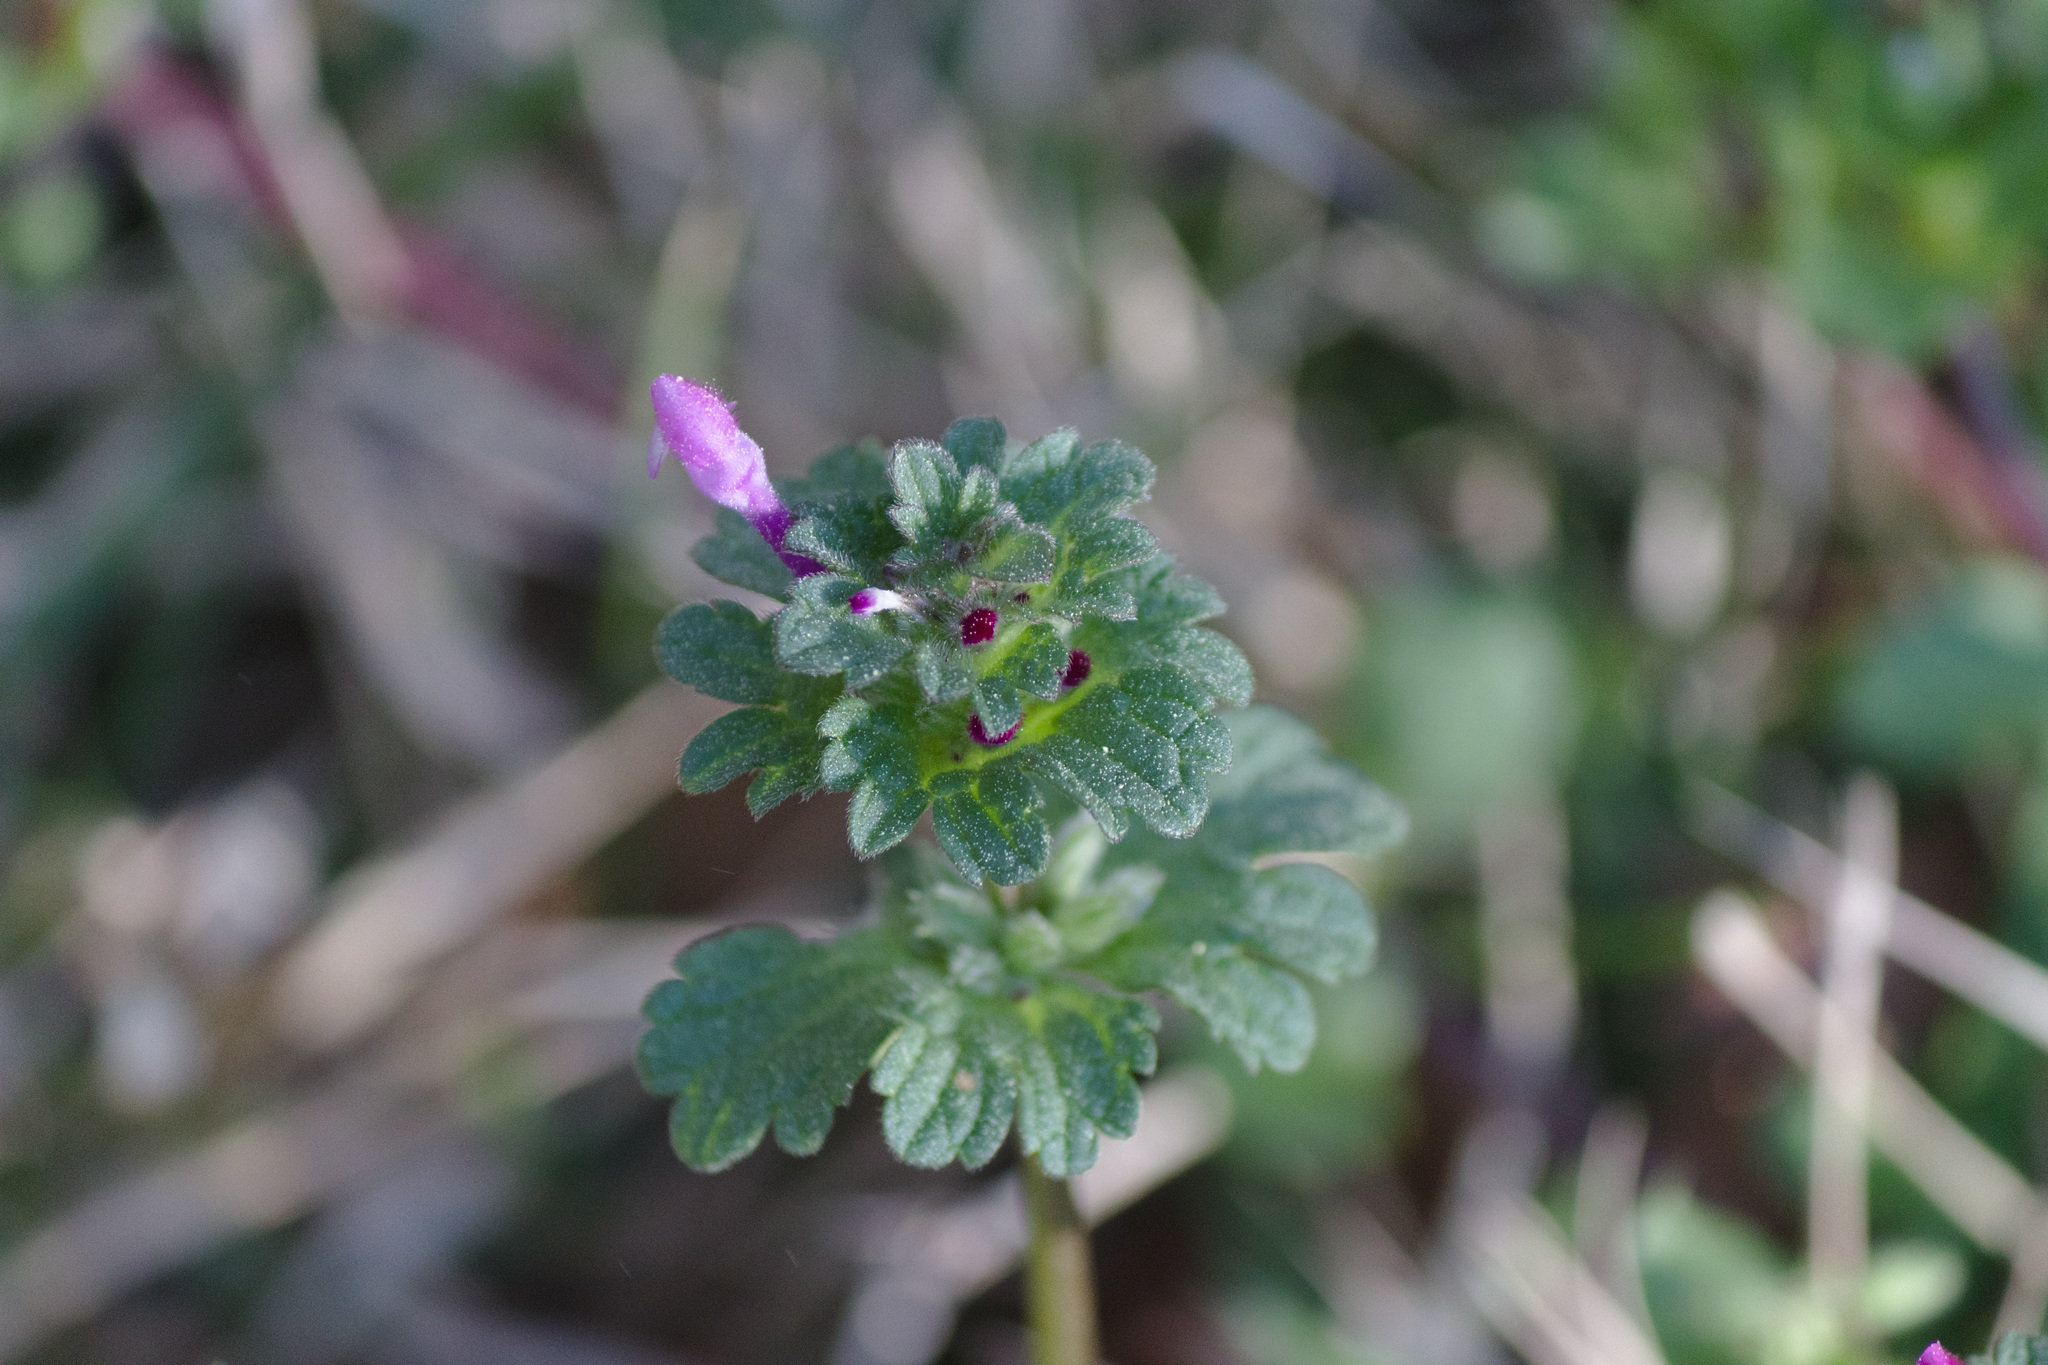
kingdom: Plantae
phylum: Tracheophyta
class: Magnoliopsida
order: Lamiales
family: Lamiaceae
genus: Lamium
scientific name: Lamium amplexicaule
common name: Henbit dead-nettle
